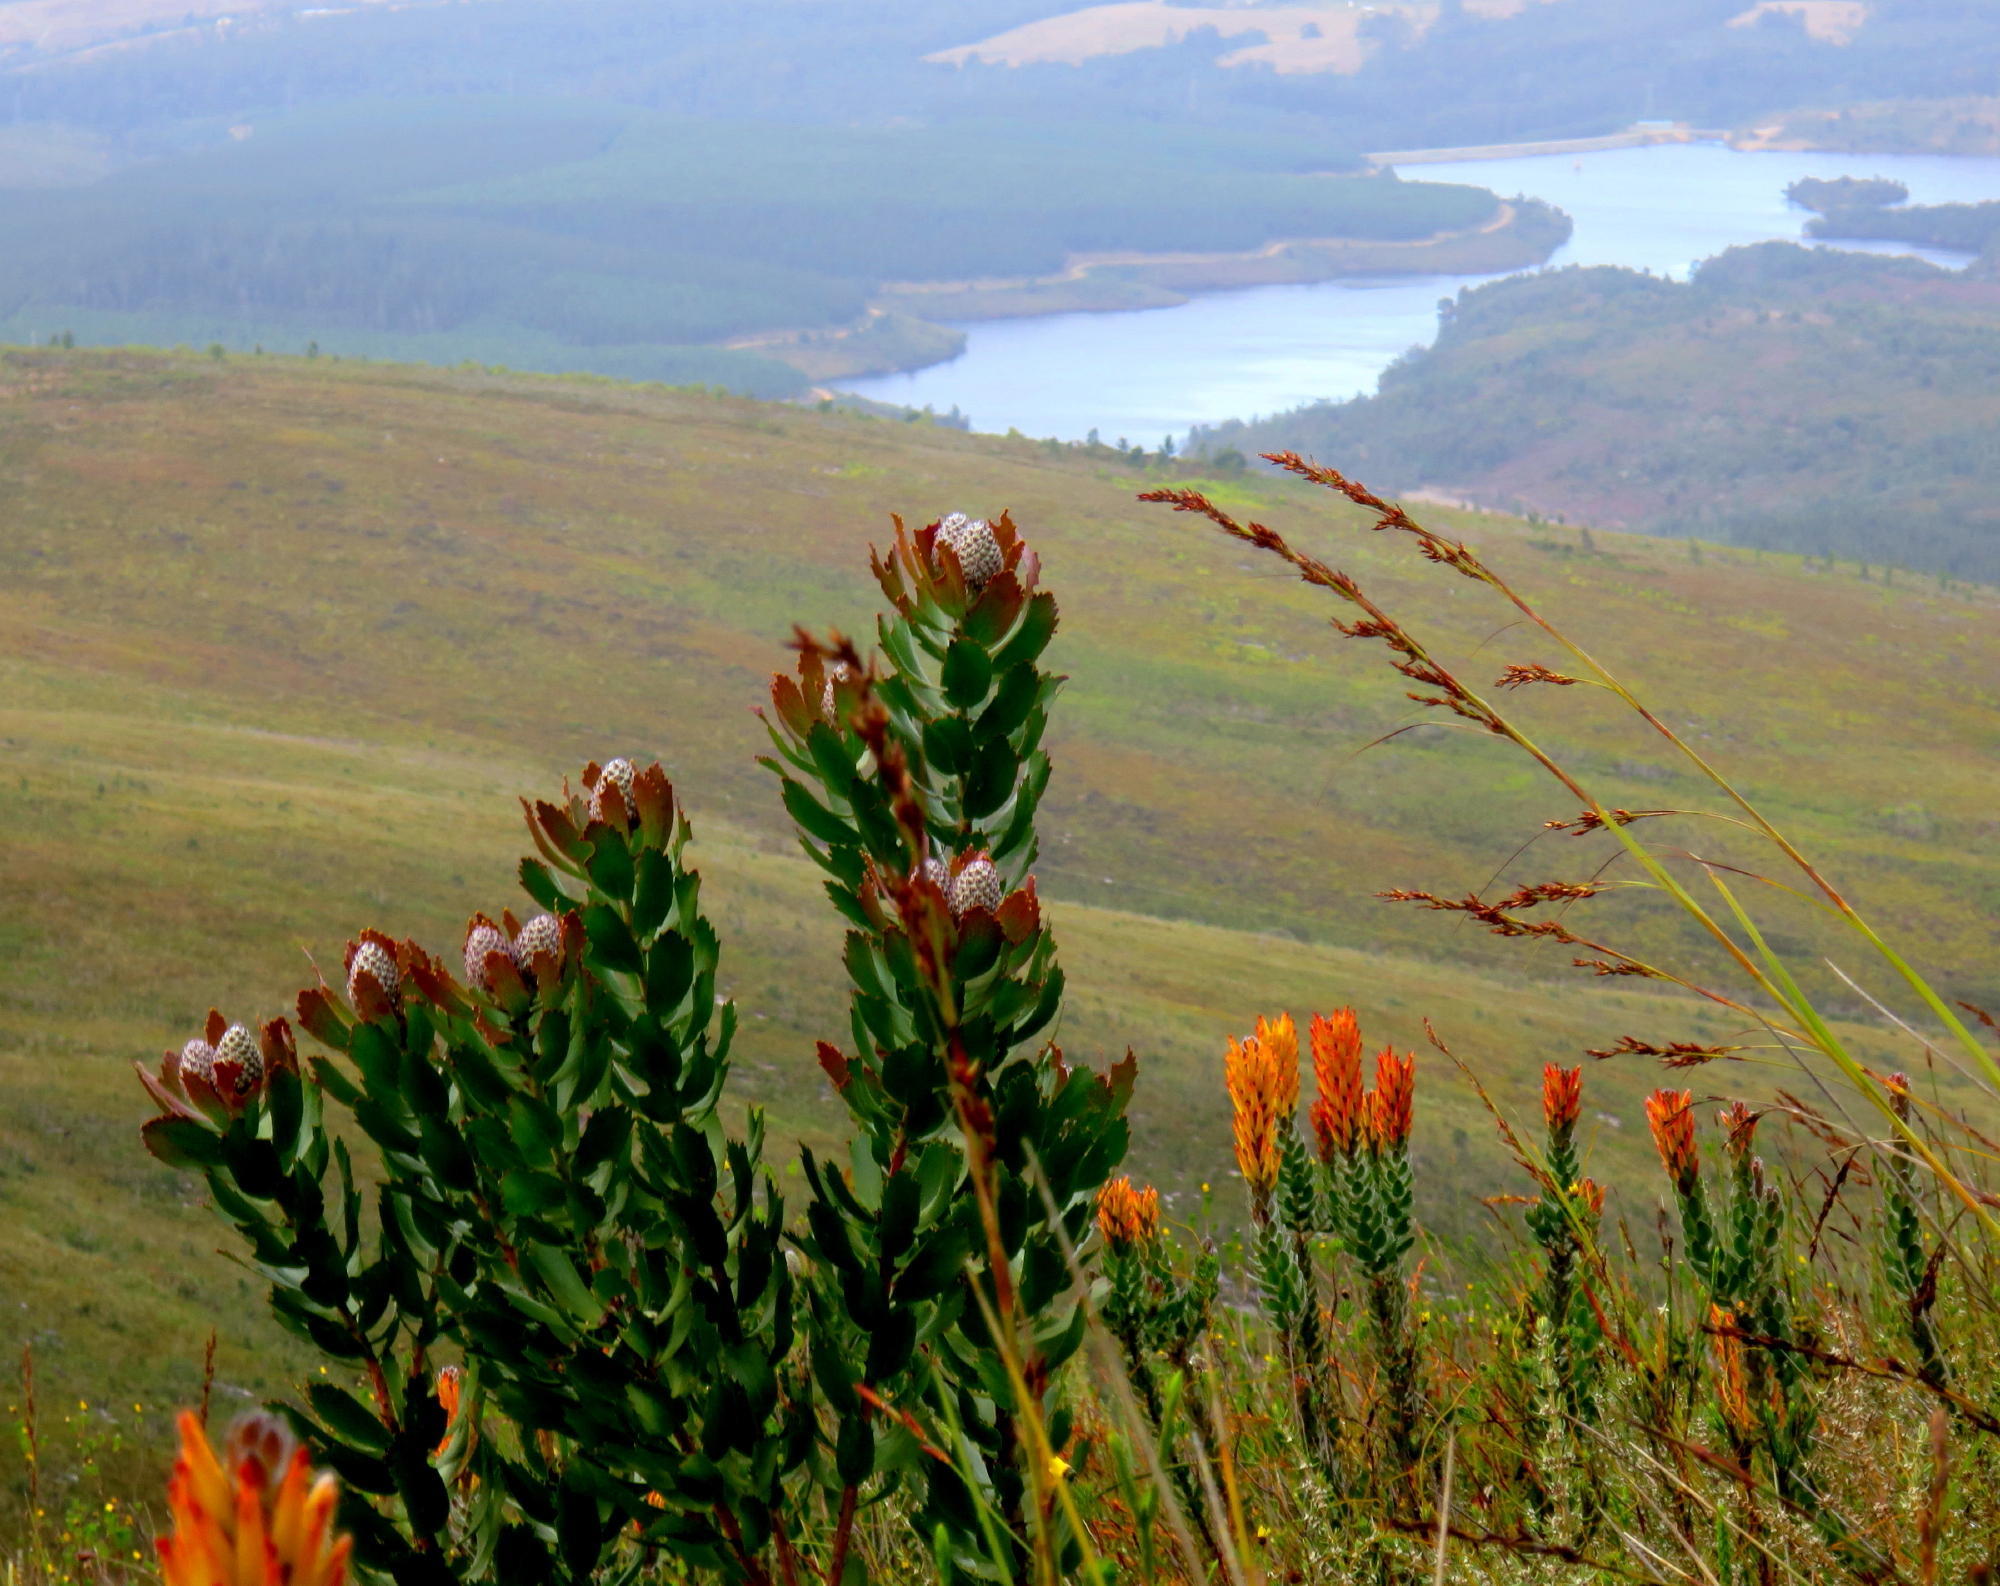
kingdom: Plantae
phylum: Tracheophyta
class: Magnoliopsida
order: Proteales
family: Proteaceae
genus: Leucospermum
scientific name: Leucospermum glabrum
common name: Outeniqua pincushion
